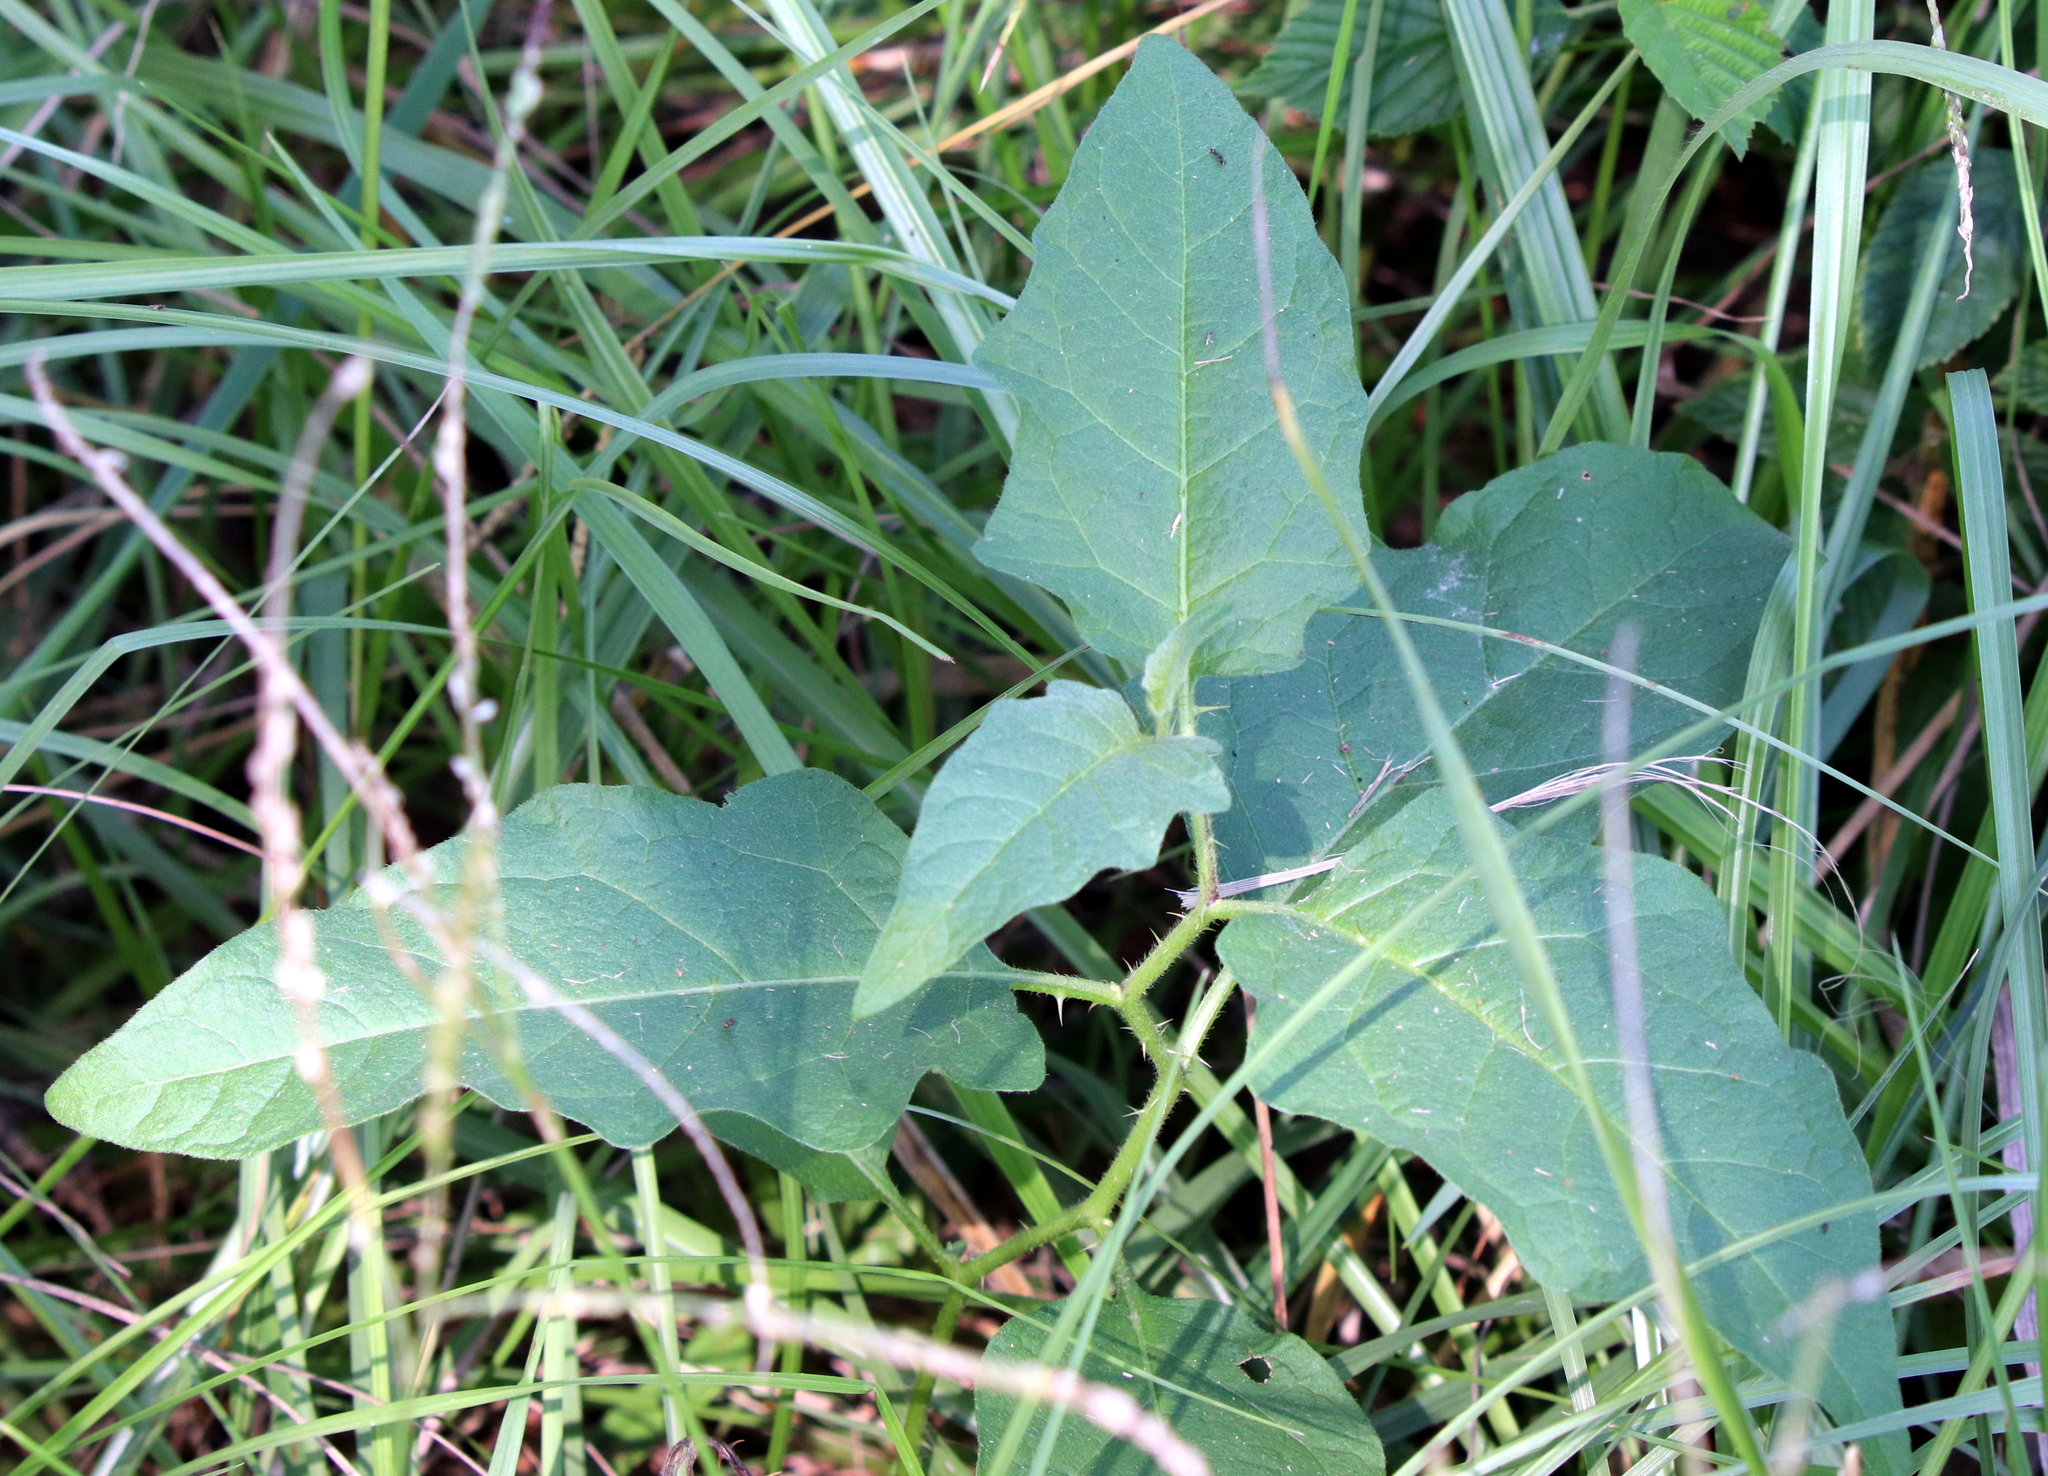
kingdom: Plantae
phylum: Tracheophyta
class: Magnoliopsida
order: Solanales
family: Solanaceae
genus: Solanum
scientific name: Solanum carolinense
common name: Horse-nettle
